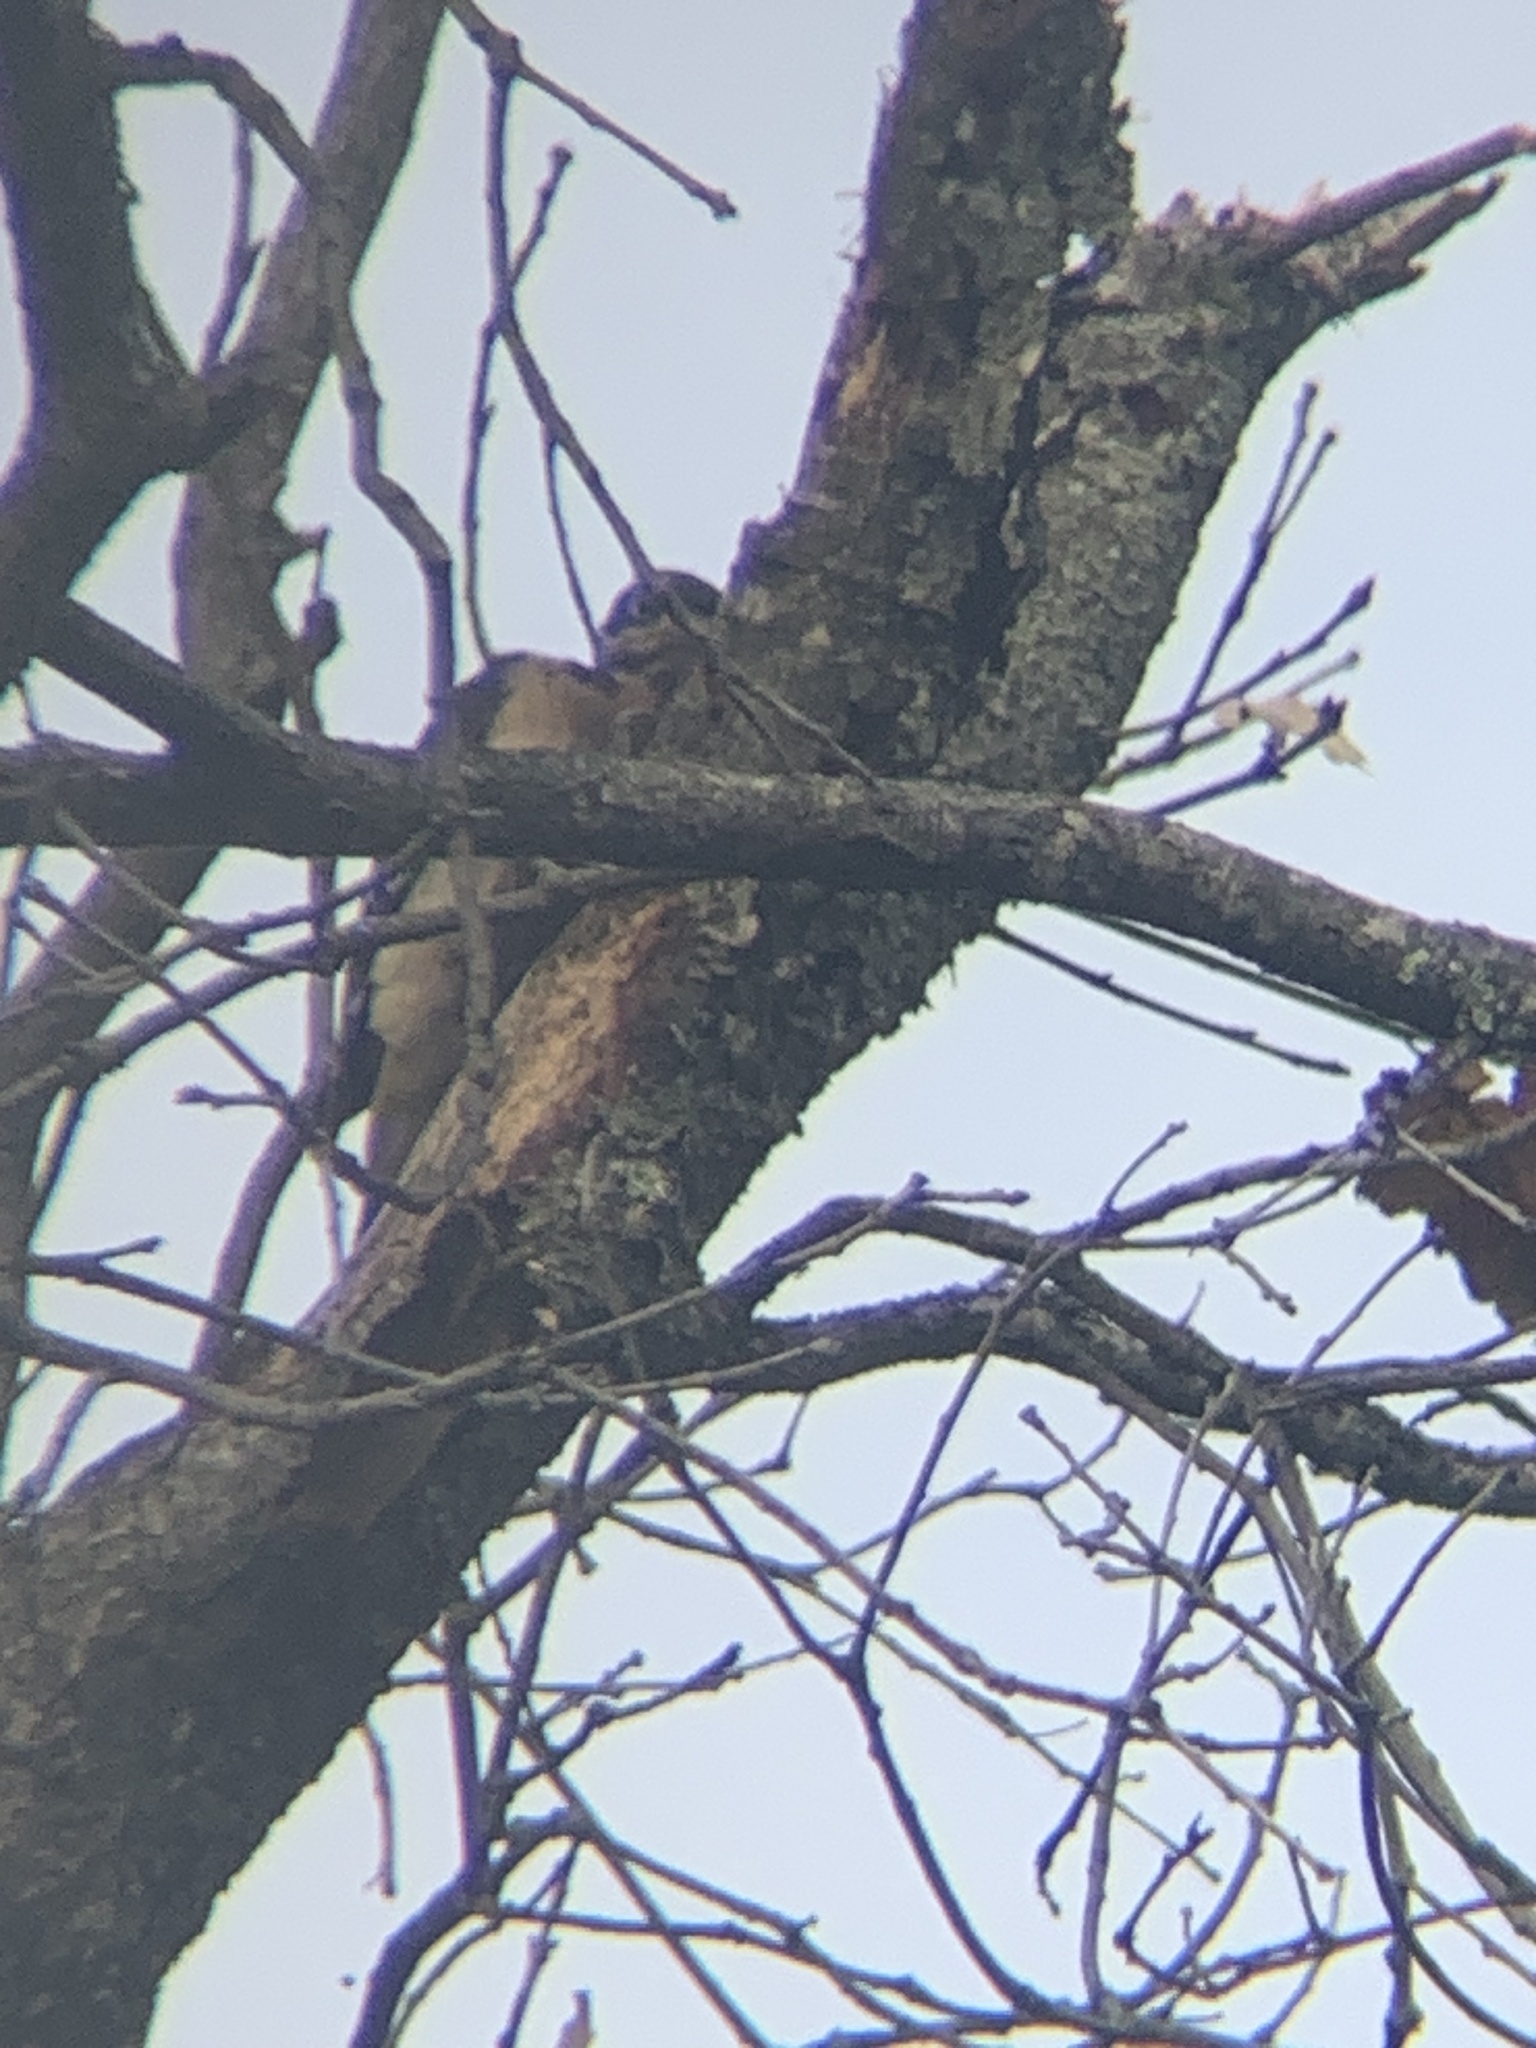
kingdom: Animalia
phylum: Chordata
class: Aves
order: Piciformes
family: Picidae
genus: Leuconotopicus
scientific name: Leuconotopicus villosus
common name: Hairy woodpecker
